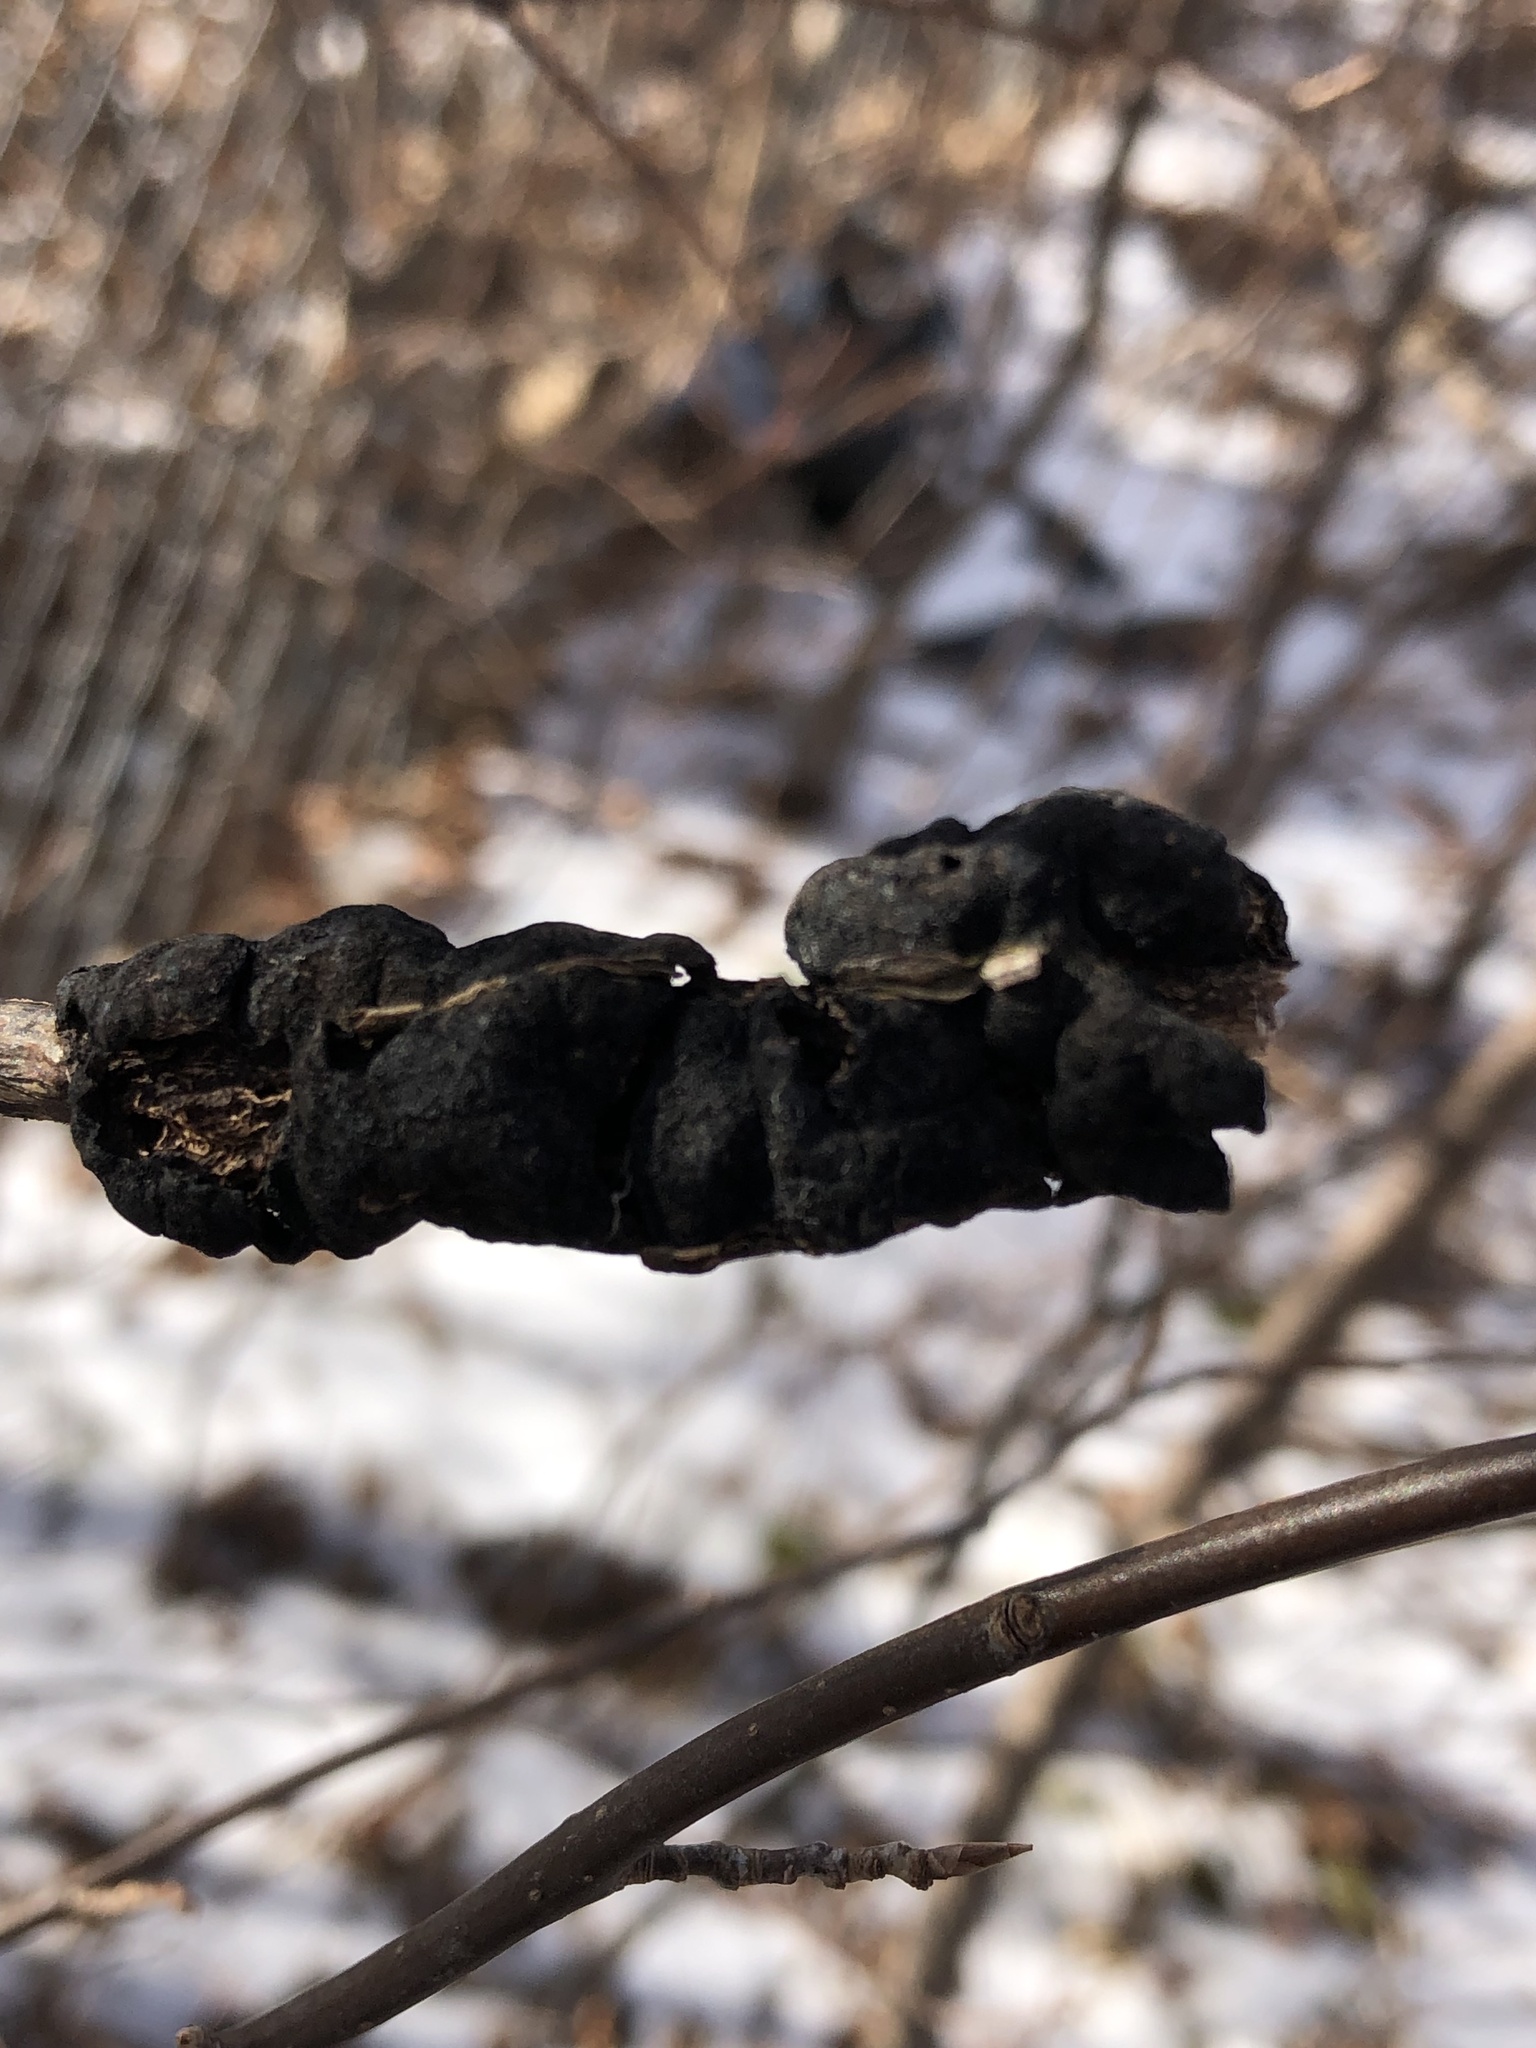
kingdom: Fungi
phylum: Ascomycota
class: Dothideomycetes
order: Venturiales
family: Venturiaceae
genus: Apiosporina
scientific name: Apiosporina morbosa
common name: Black knot
